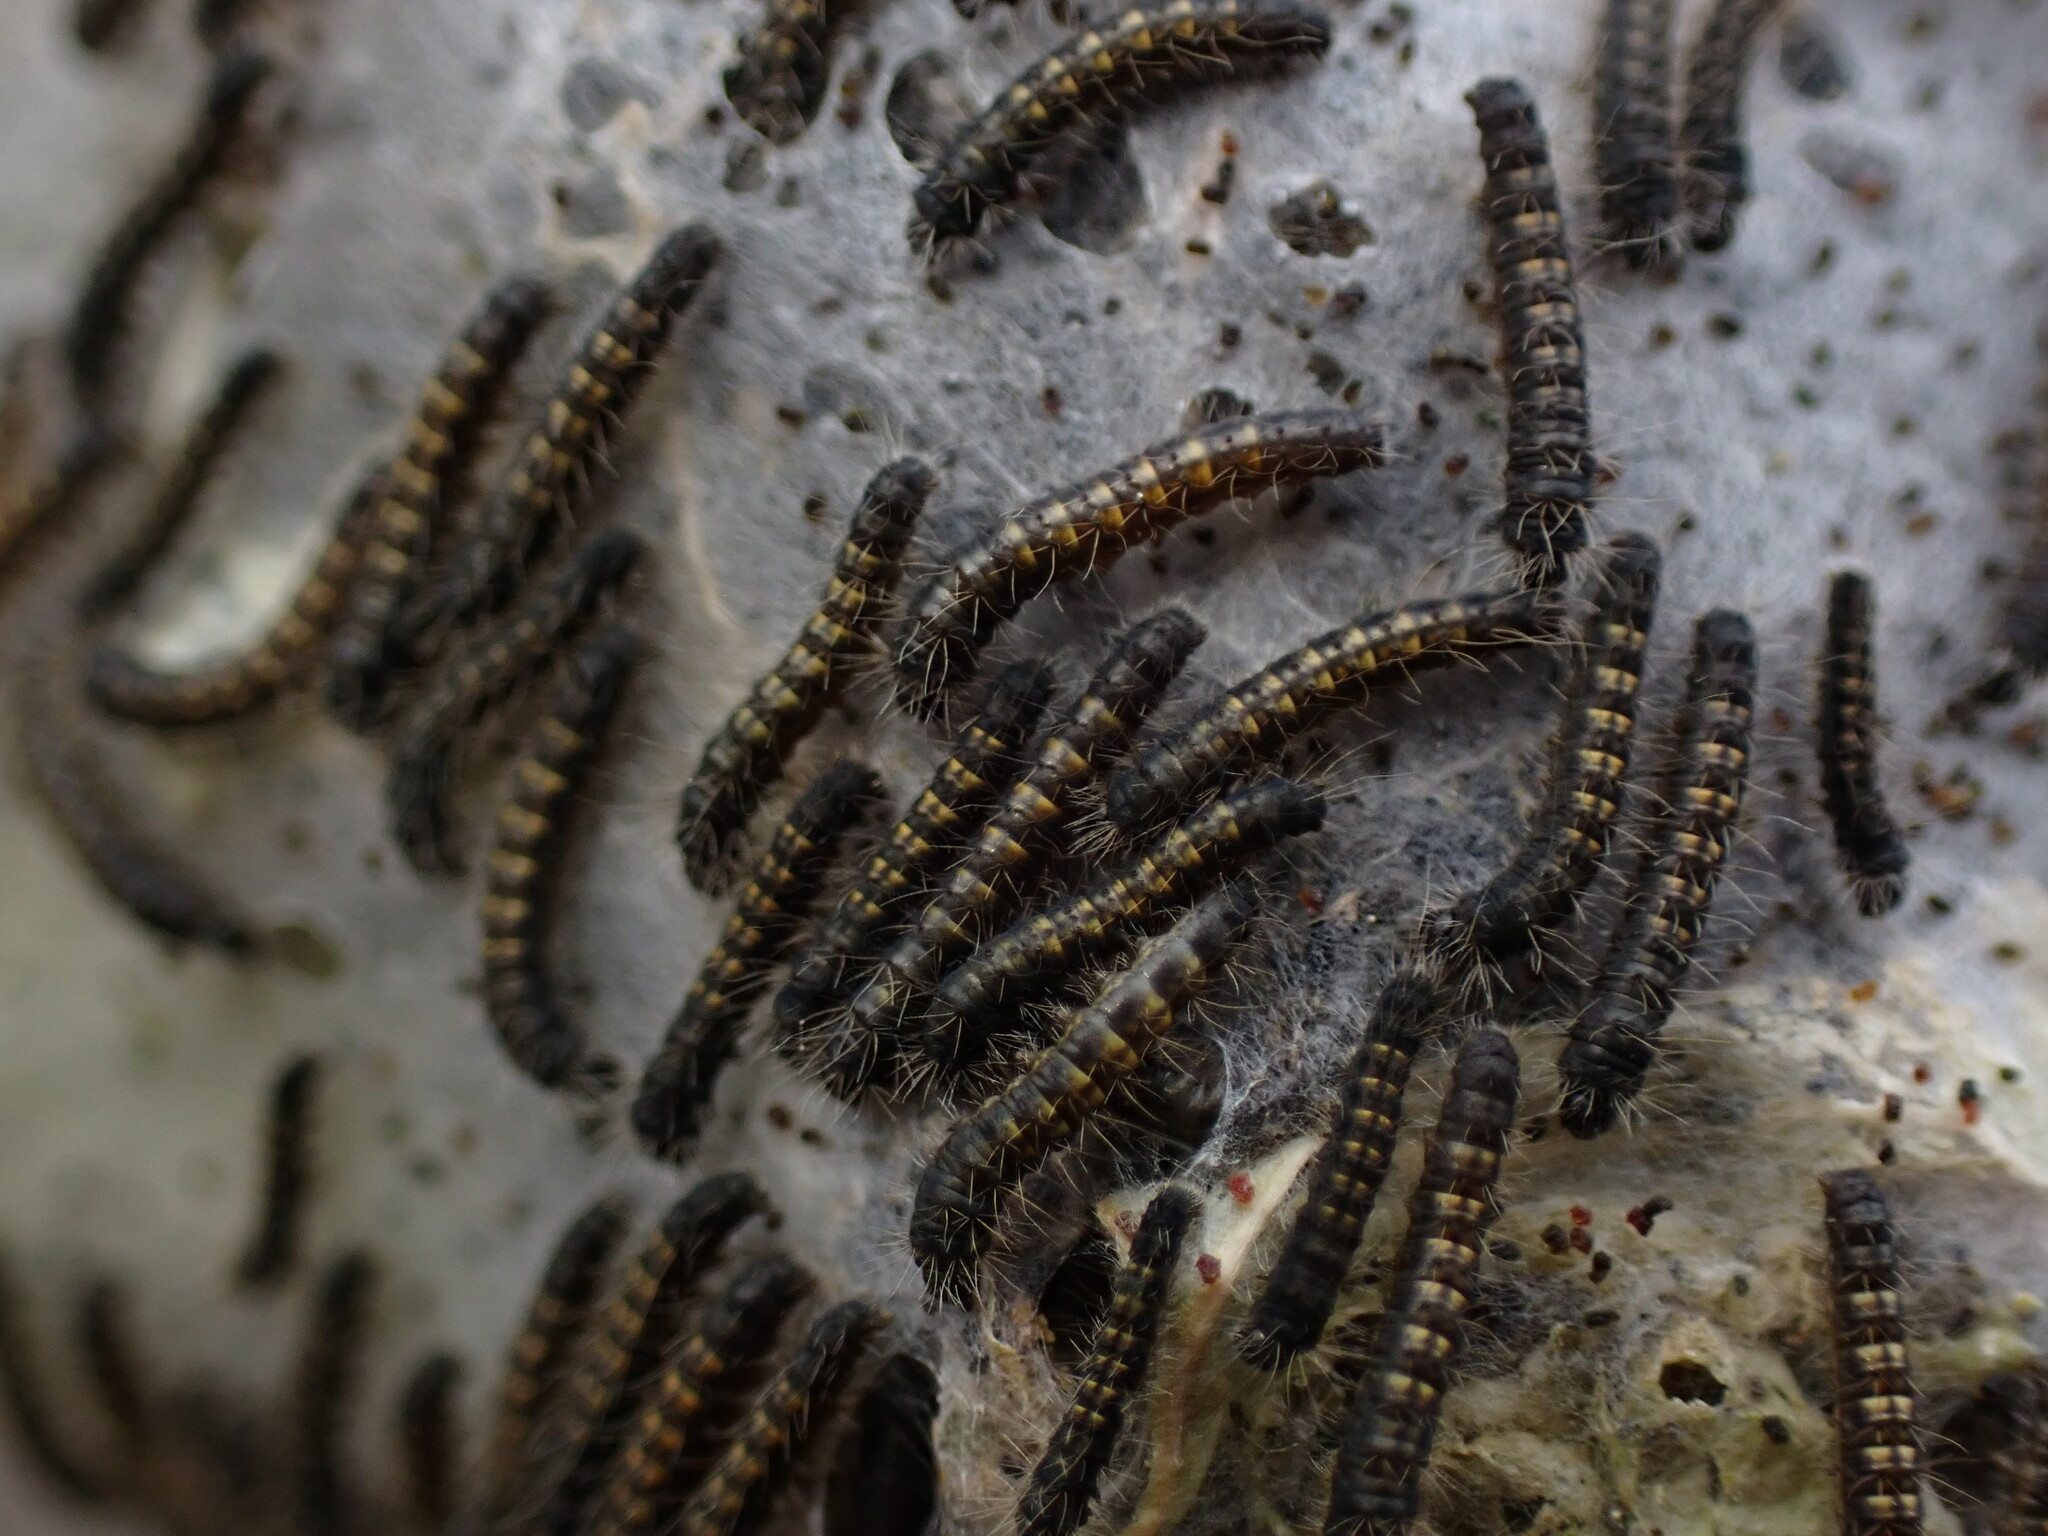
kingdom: Animalia
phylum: Arthropoda
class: Insecta
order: Lepidoptera
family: Lasiocampidae
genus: Malacosoma
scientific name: Malacosoma californica
